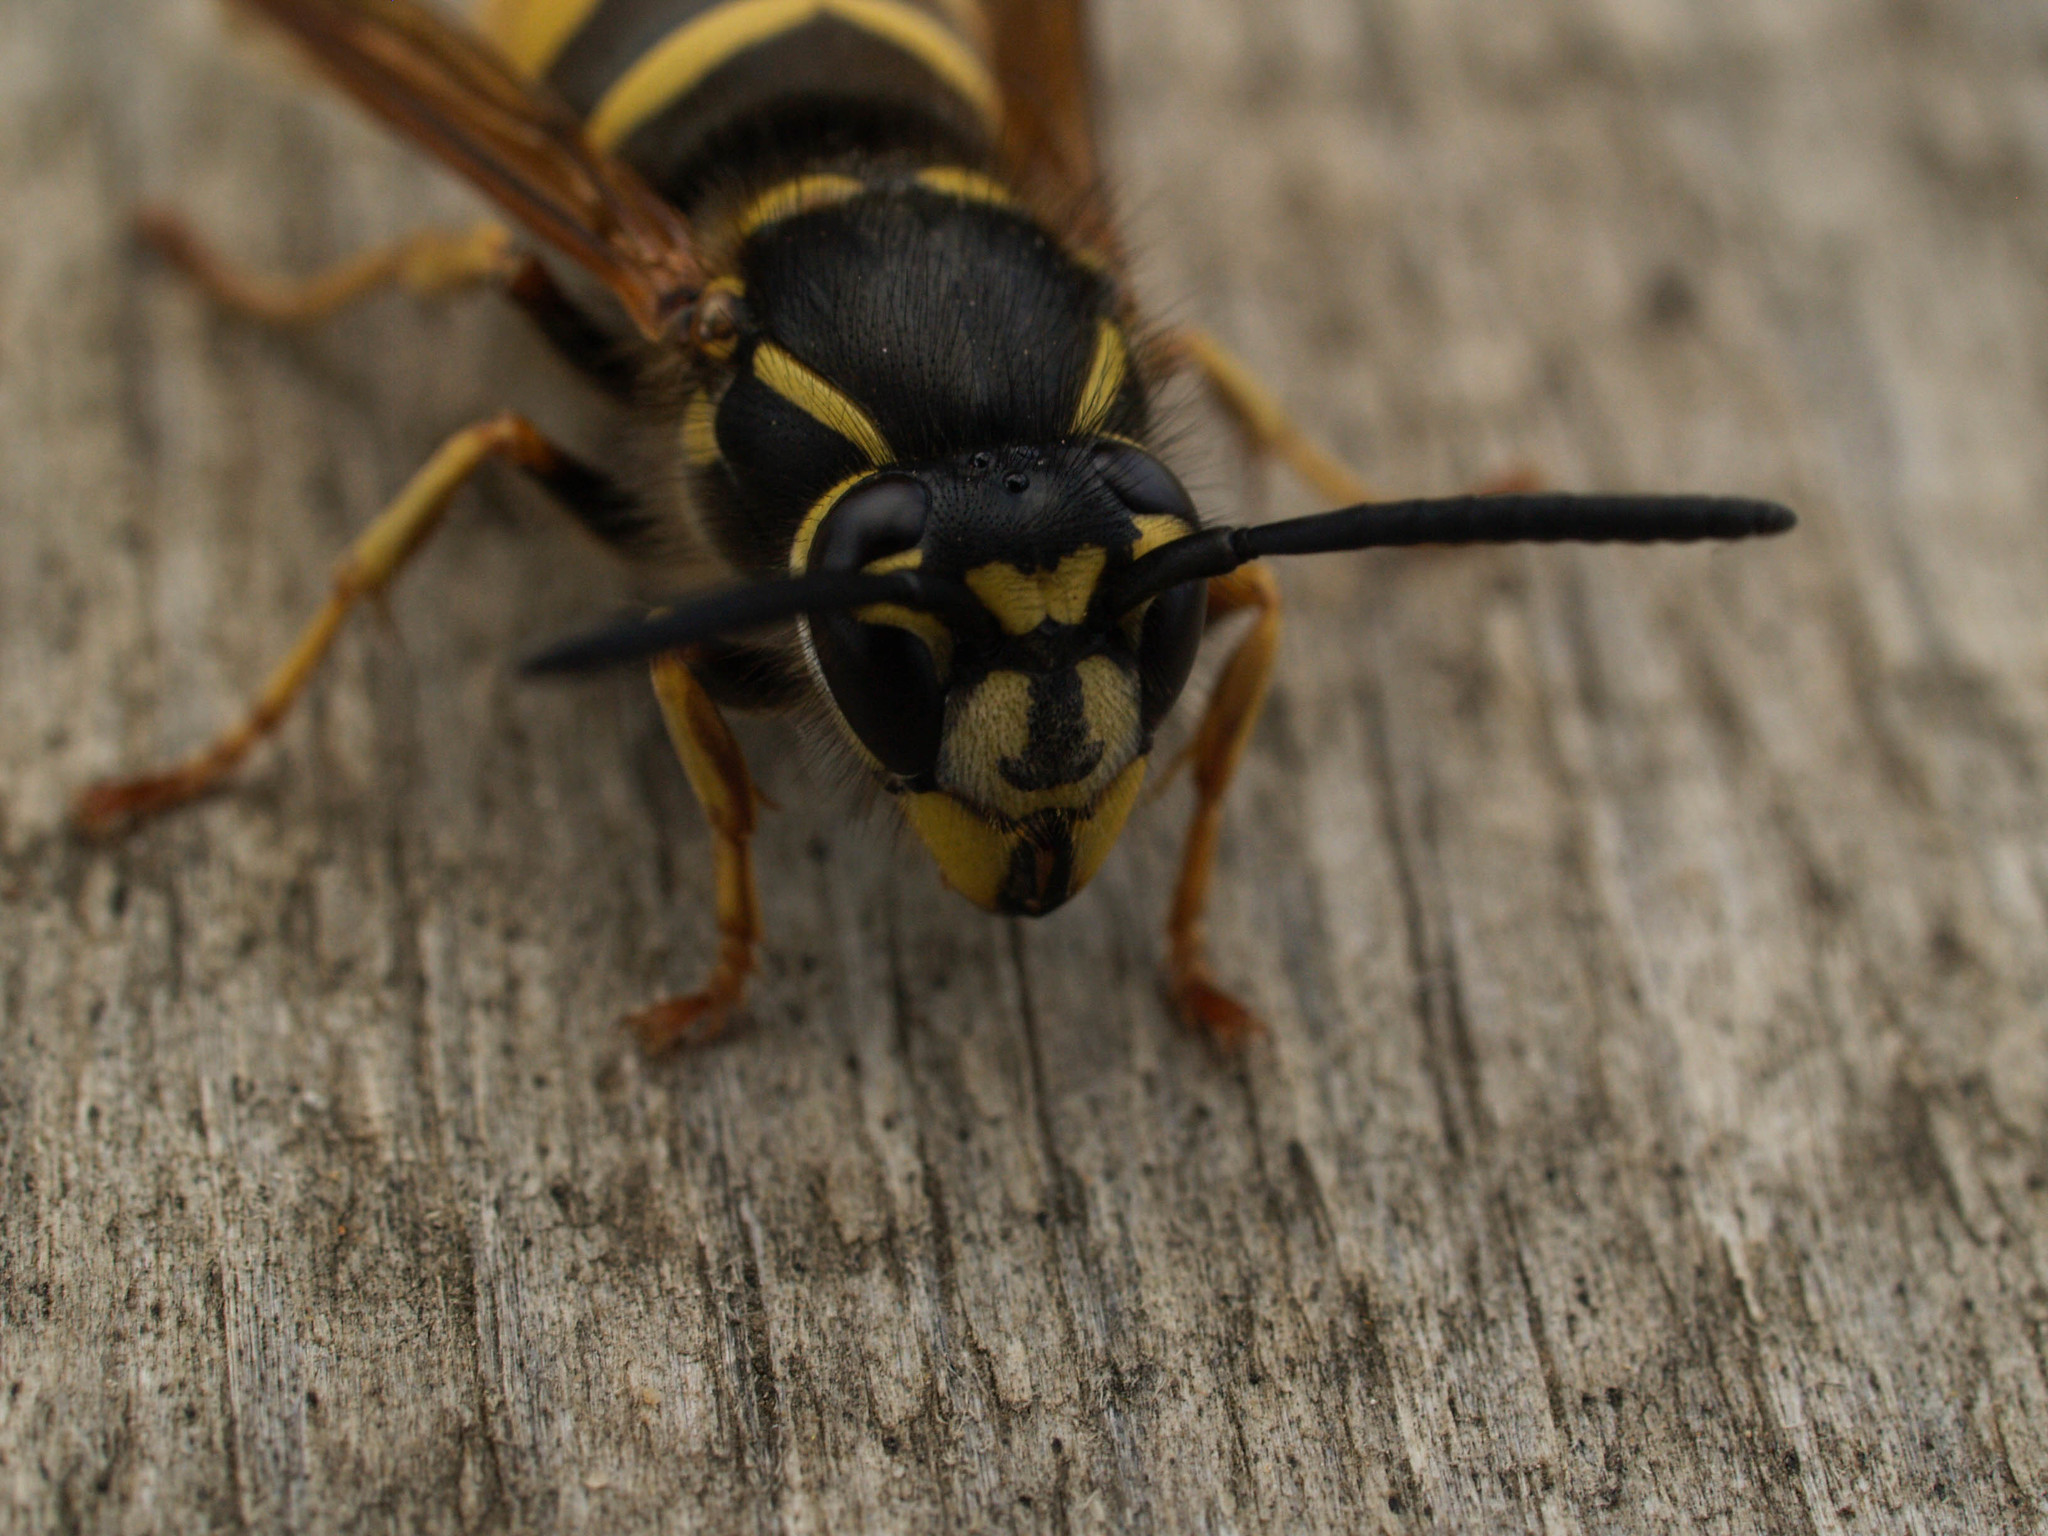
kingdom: Animalia
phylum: Arthropoda
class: Insecta
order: Hymenoptera
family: Vespidae
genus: Vespula
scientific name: Vespula vulgaris
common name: Common wasp
